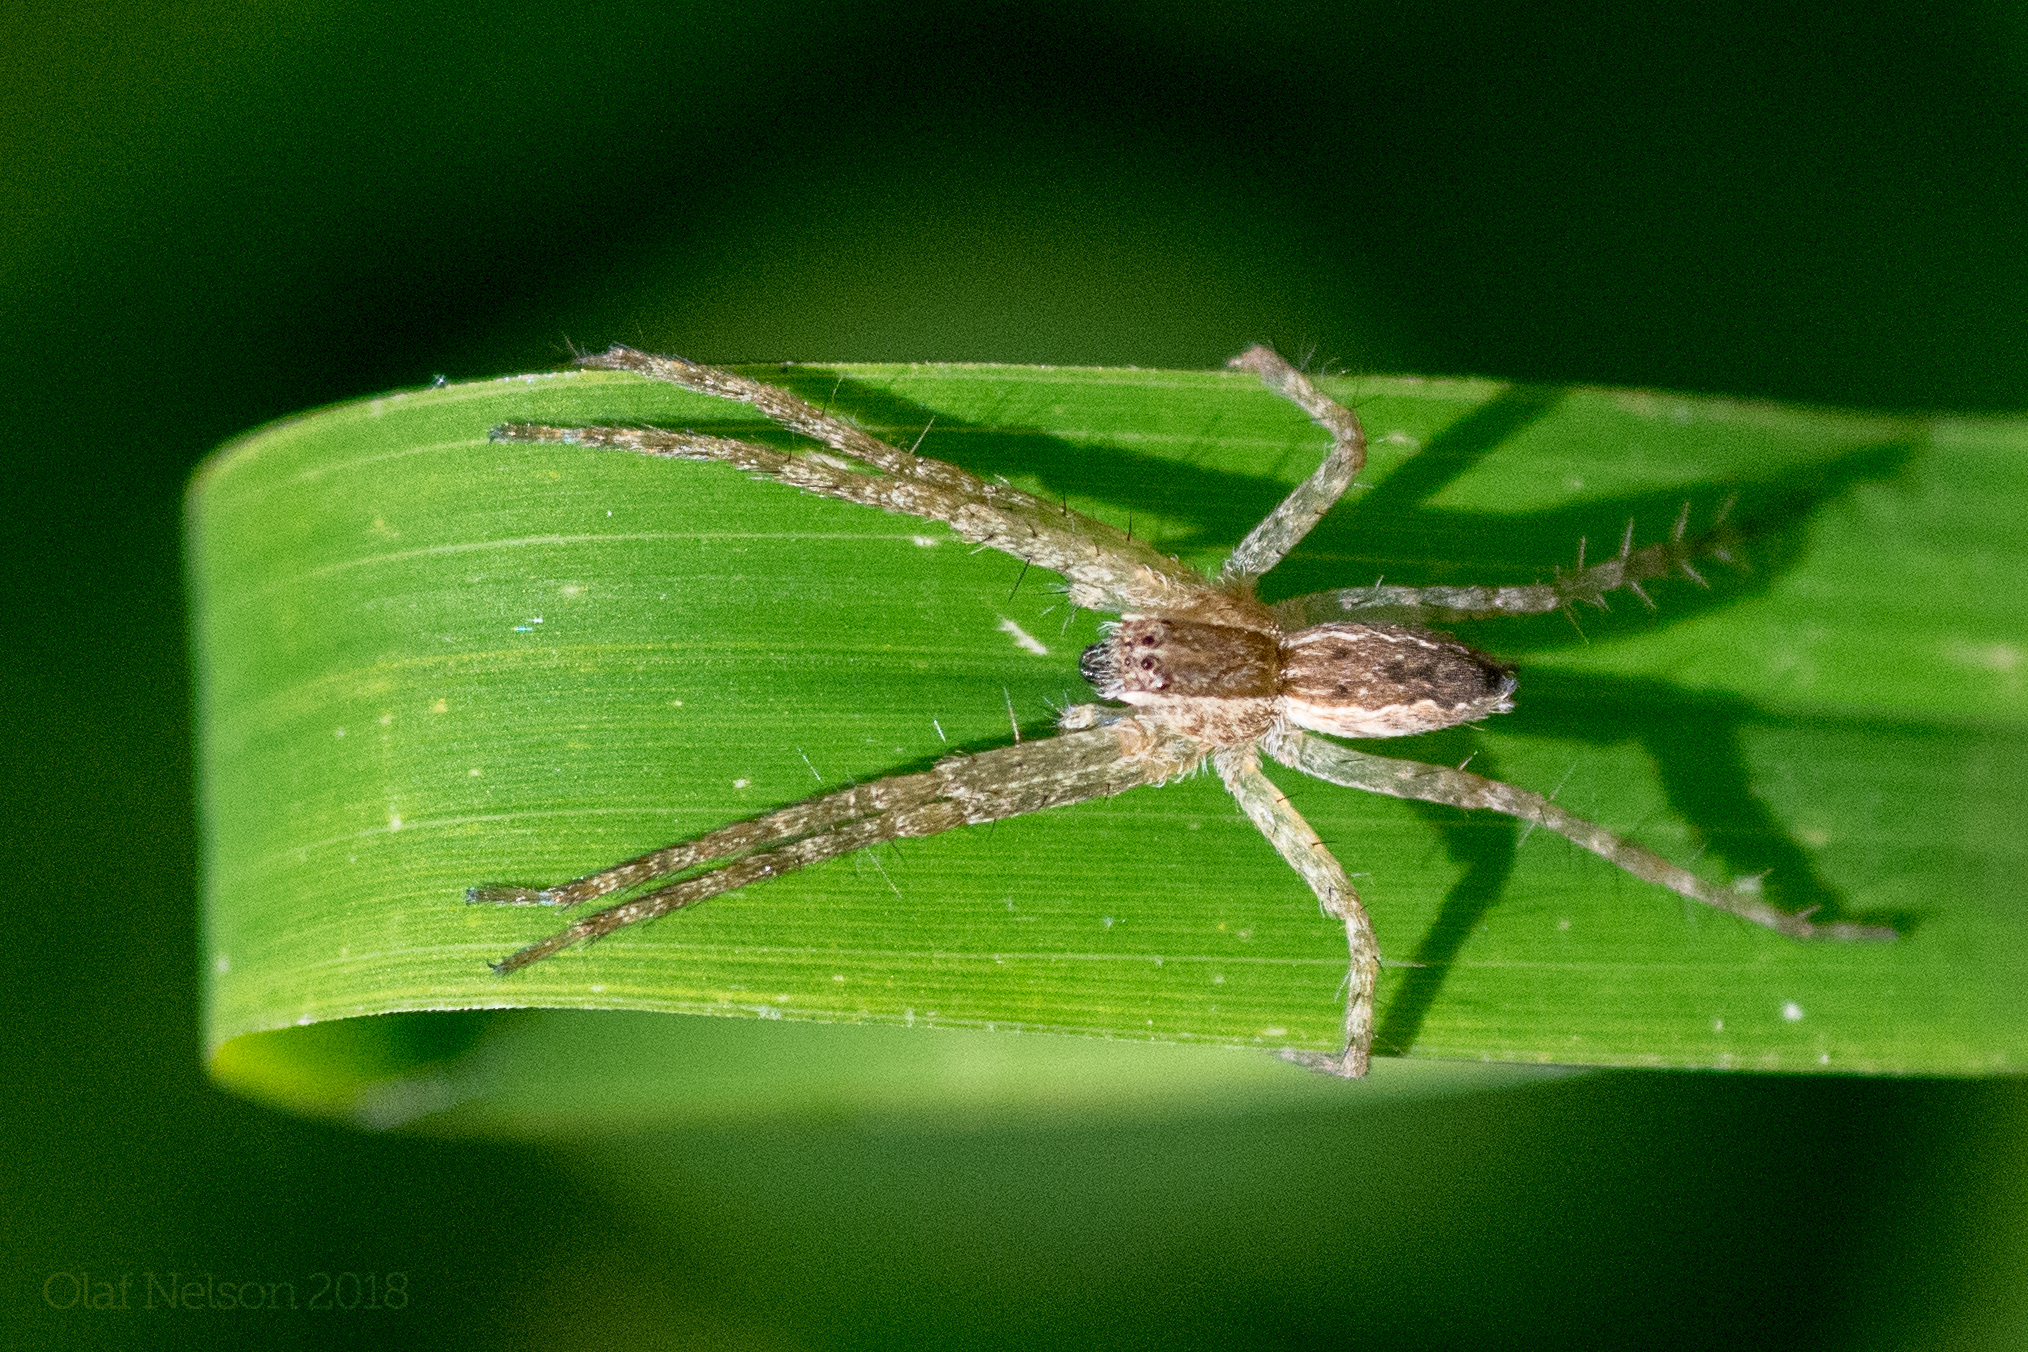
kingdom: Animalia
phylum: Arthropoda
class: Arachnida
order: Araneae
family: Pisauridae
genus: Pisaurina
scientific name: Pisaurina mira
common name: American nursery web spider
